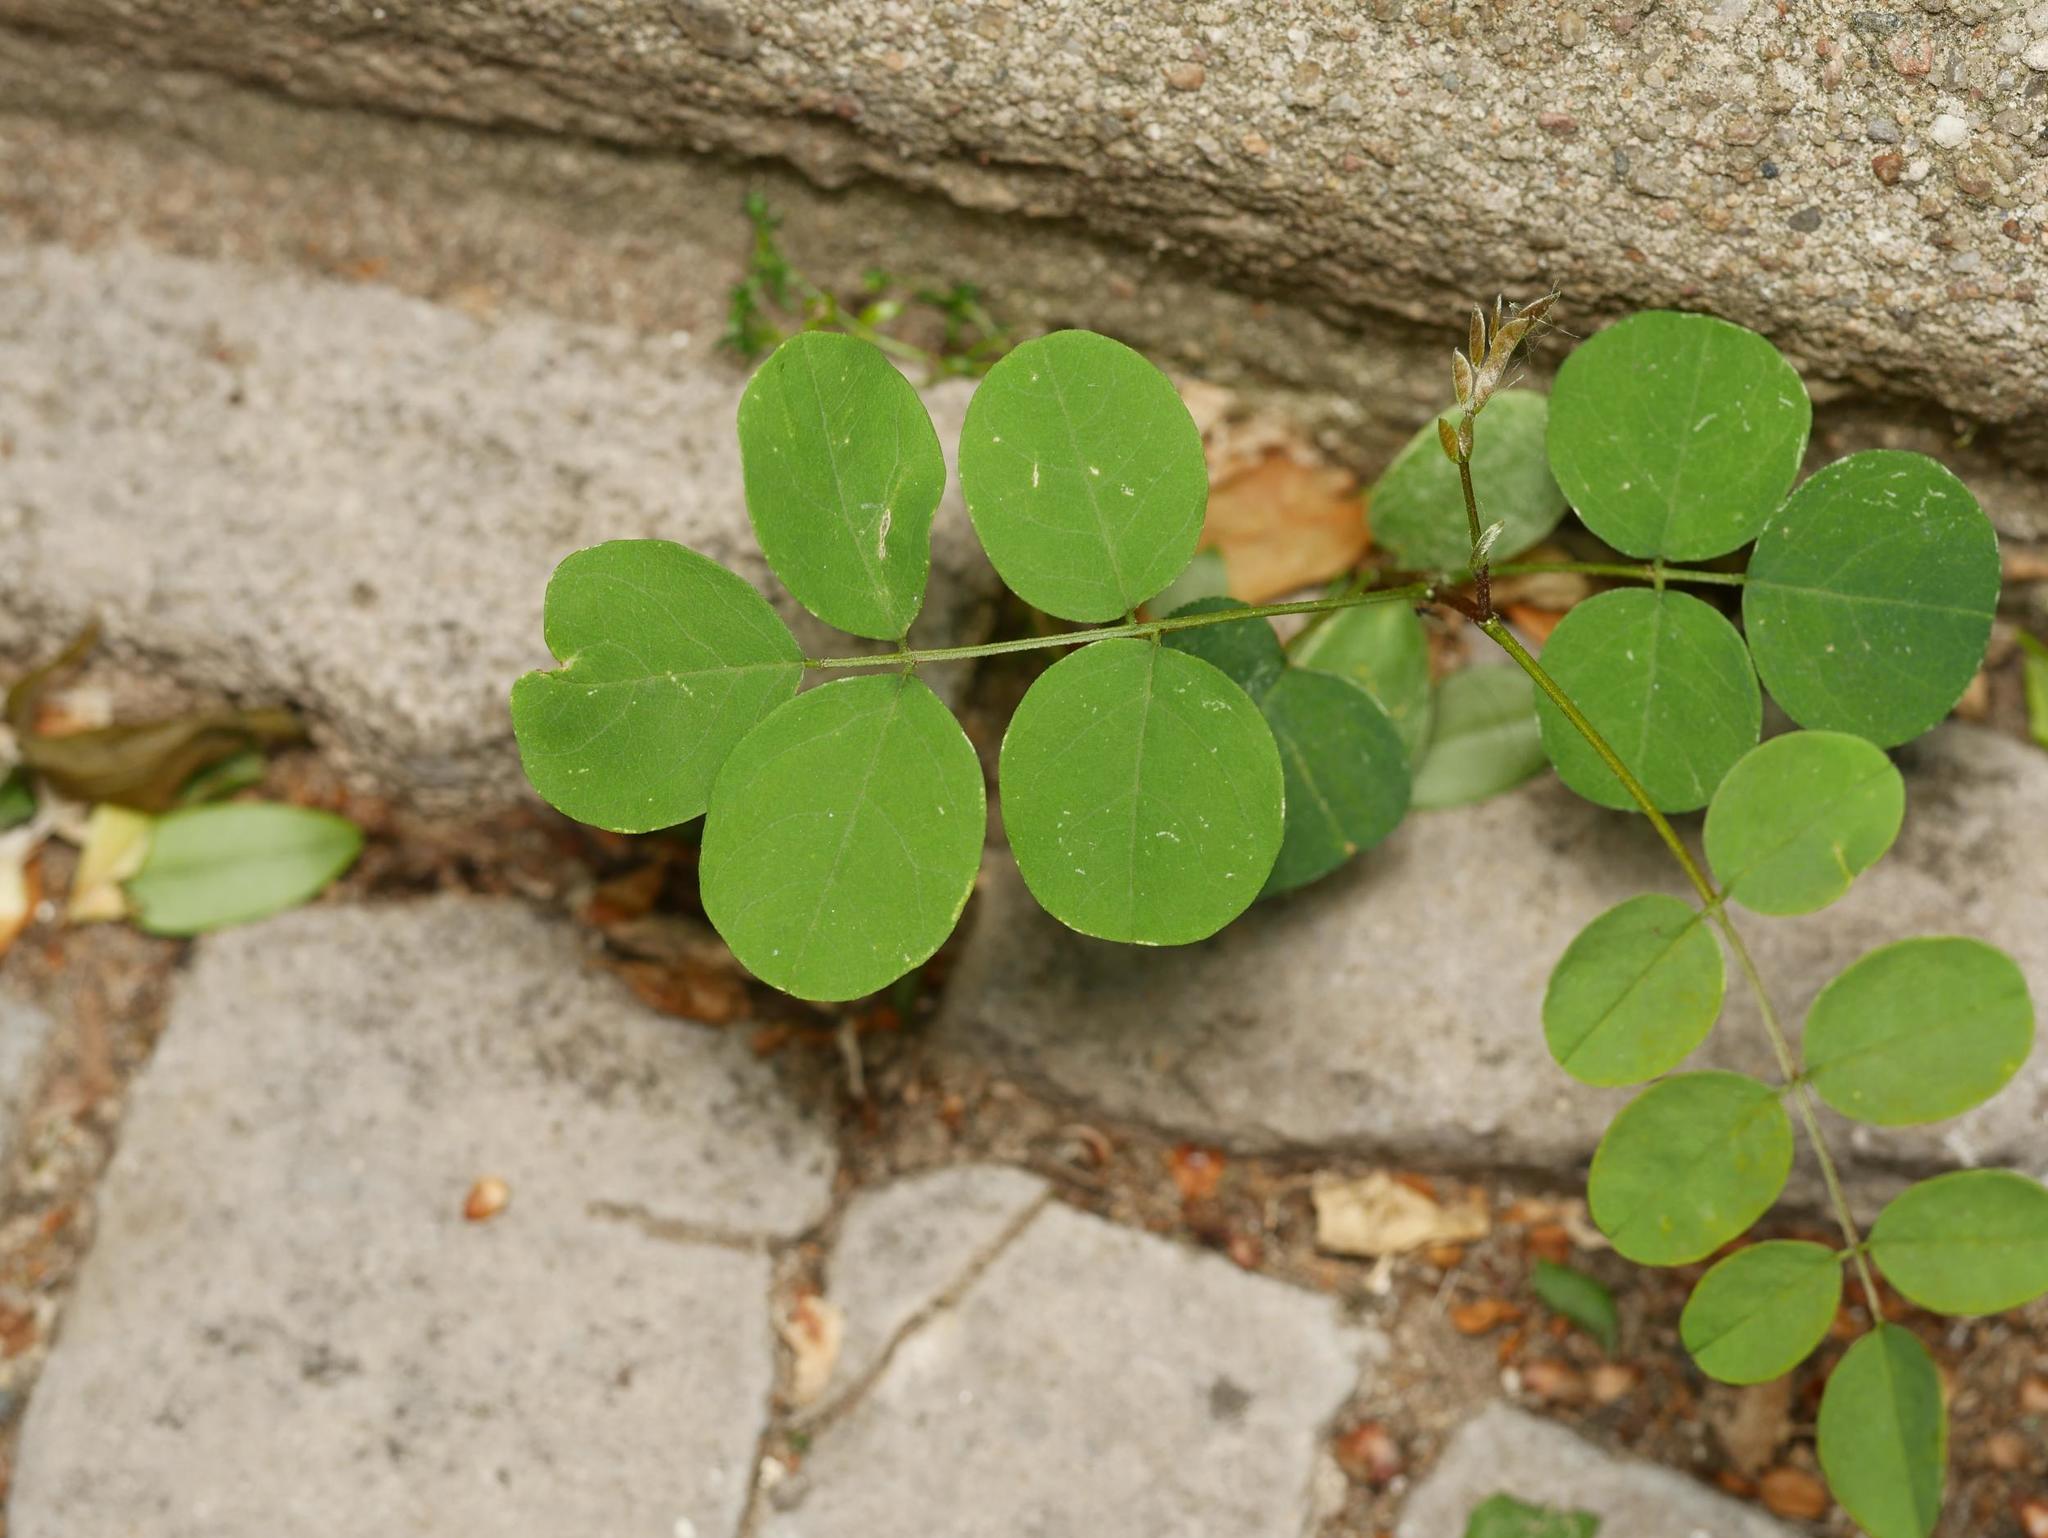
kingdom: Plantae
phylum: Tracheophyta
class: Magnoliopsida
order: Fabales
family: Fabaceae
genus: Robinia
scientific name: Robinia pseudoacacia
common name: Black locust
